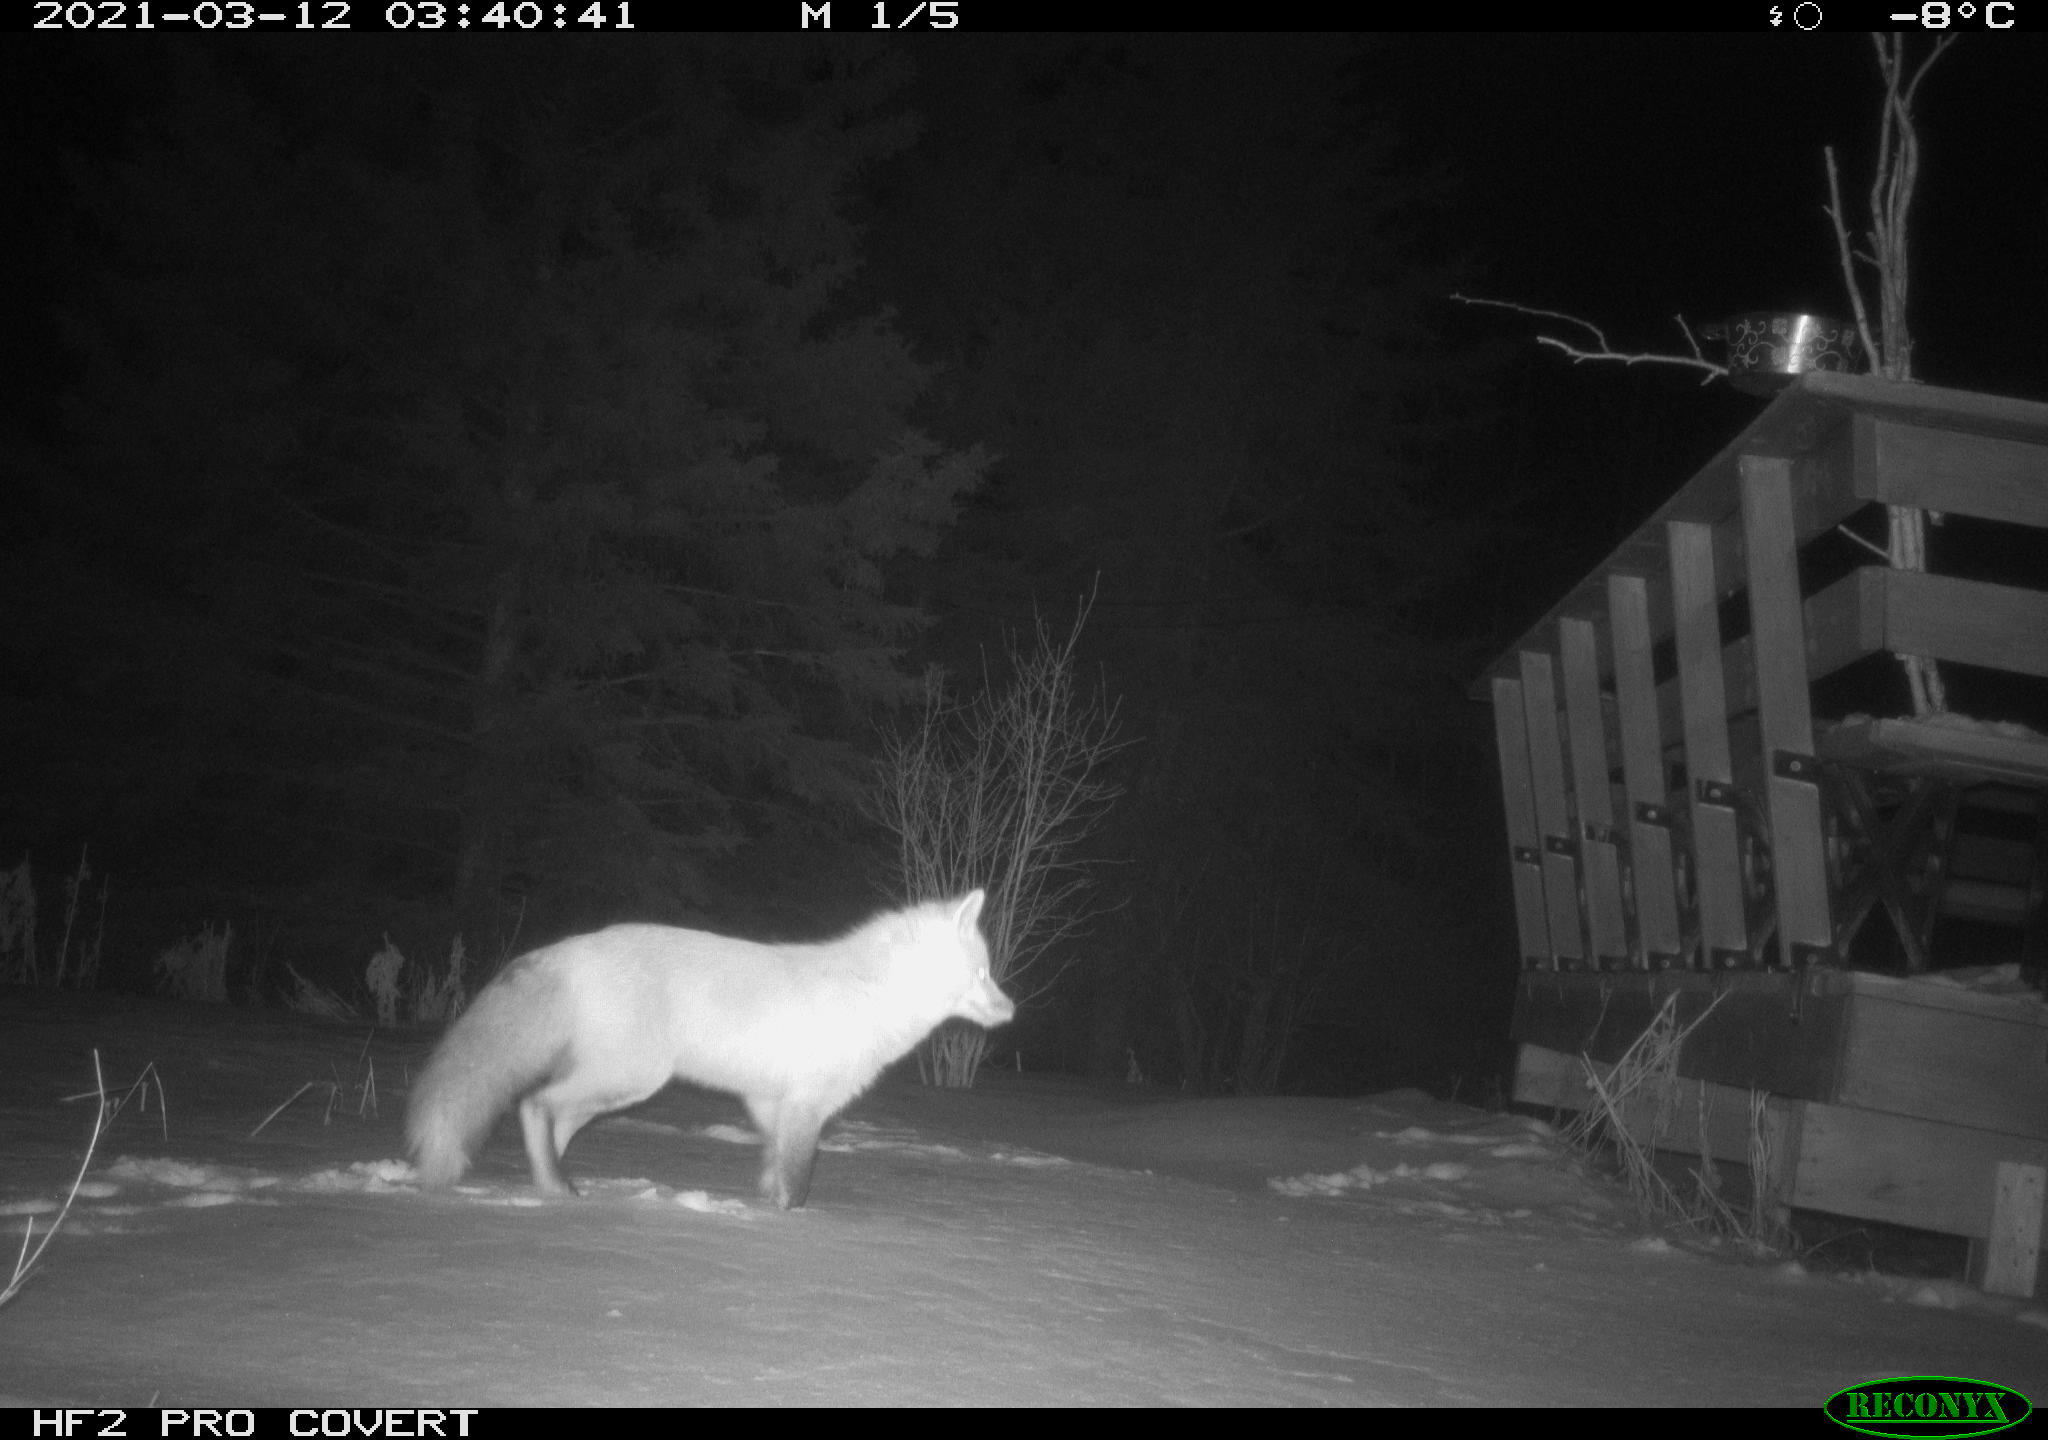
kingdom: Animalia
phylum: Chordata
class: Mammalia
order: Carnivora
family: Canidae
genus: Vulpes
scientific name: Vulpes vulpes
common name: Red fox
